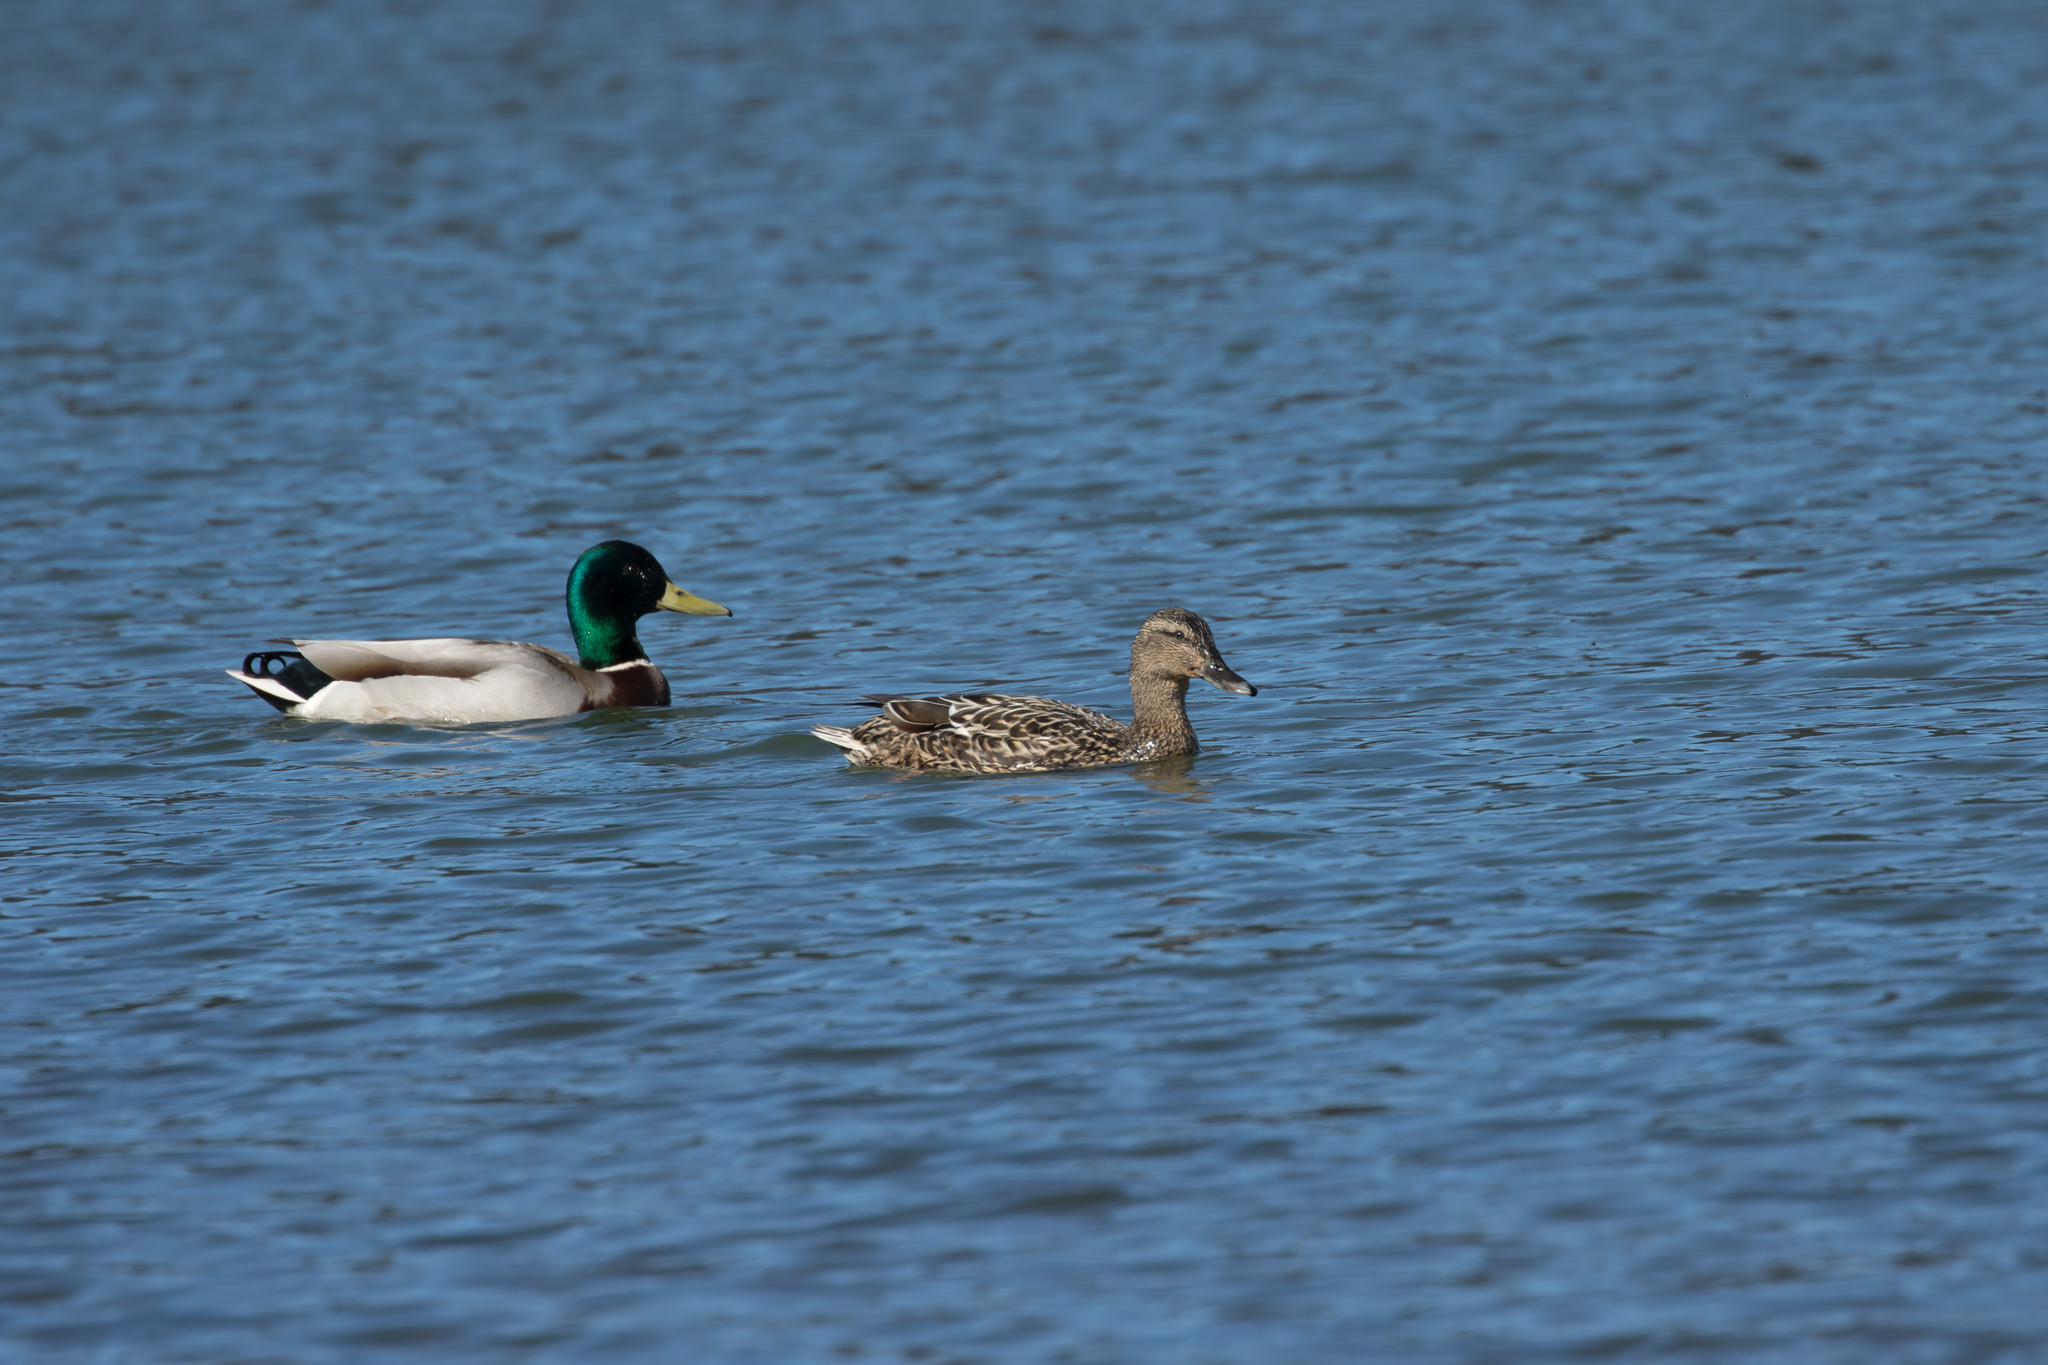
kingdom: Animalia
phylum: Chordata
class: Aves
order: Anseriformes
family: Anatidae
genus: Anas
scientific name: Anas platyrhynchos
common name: Mallard
